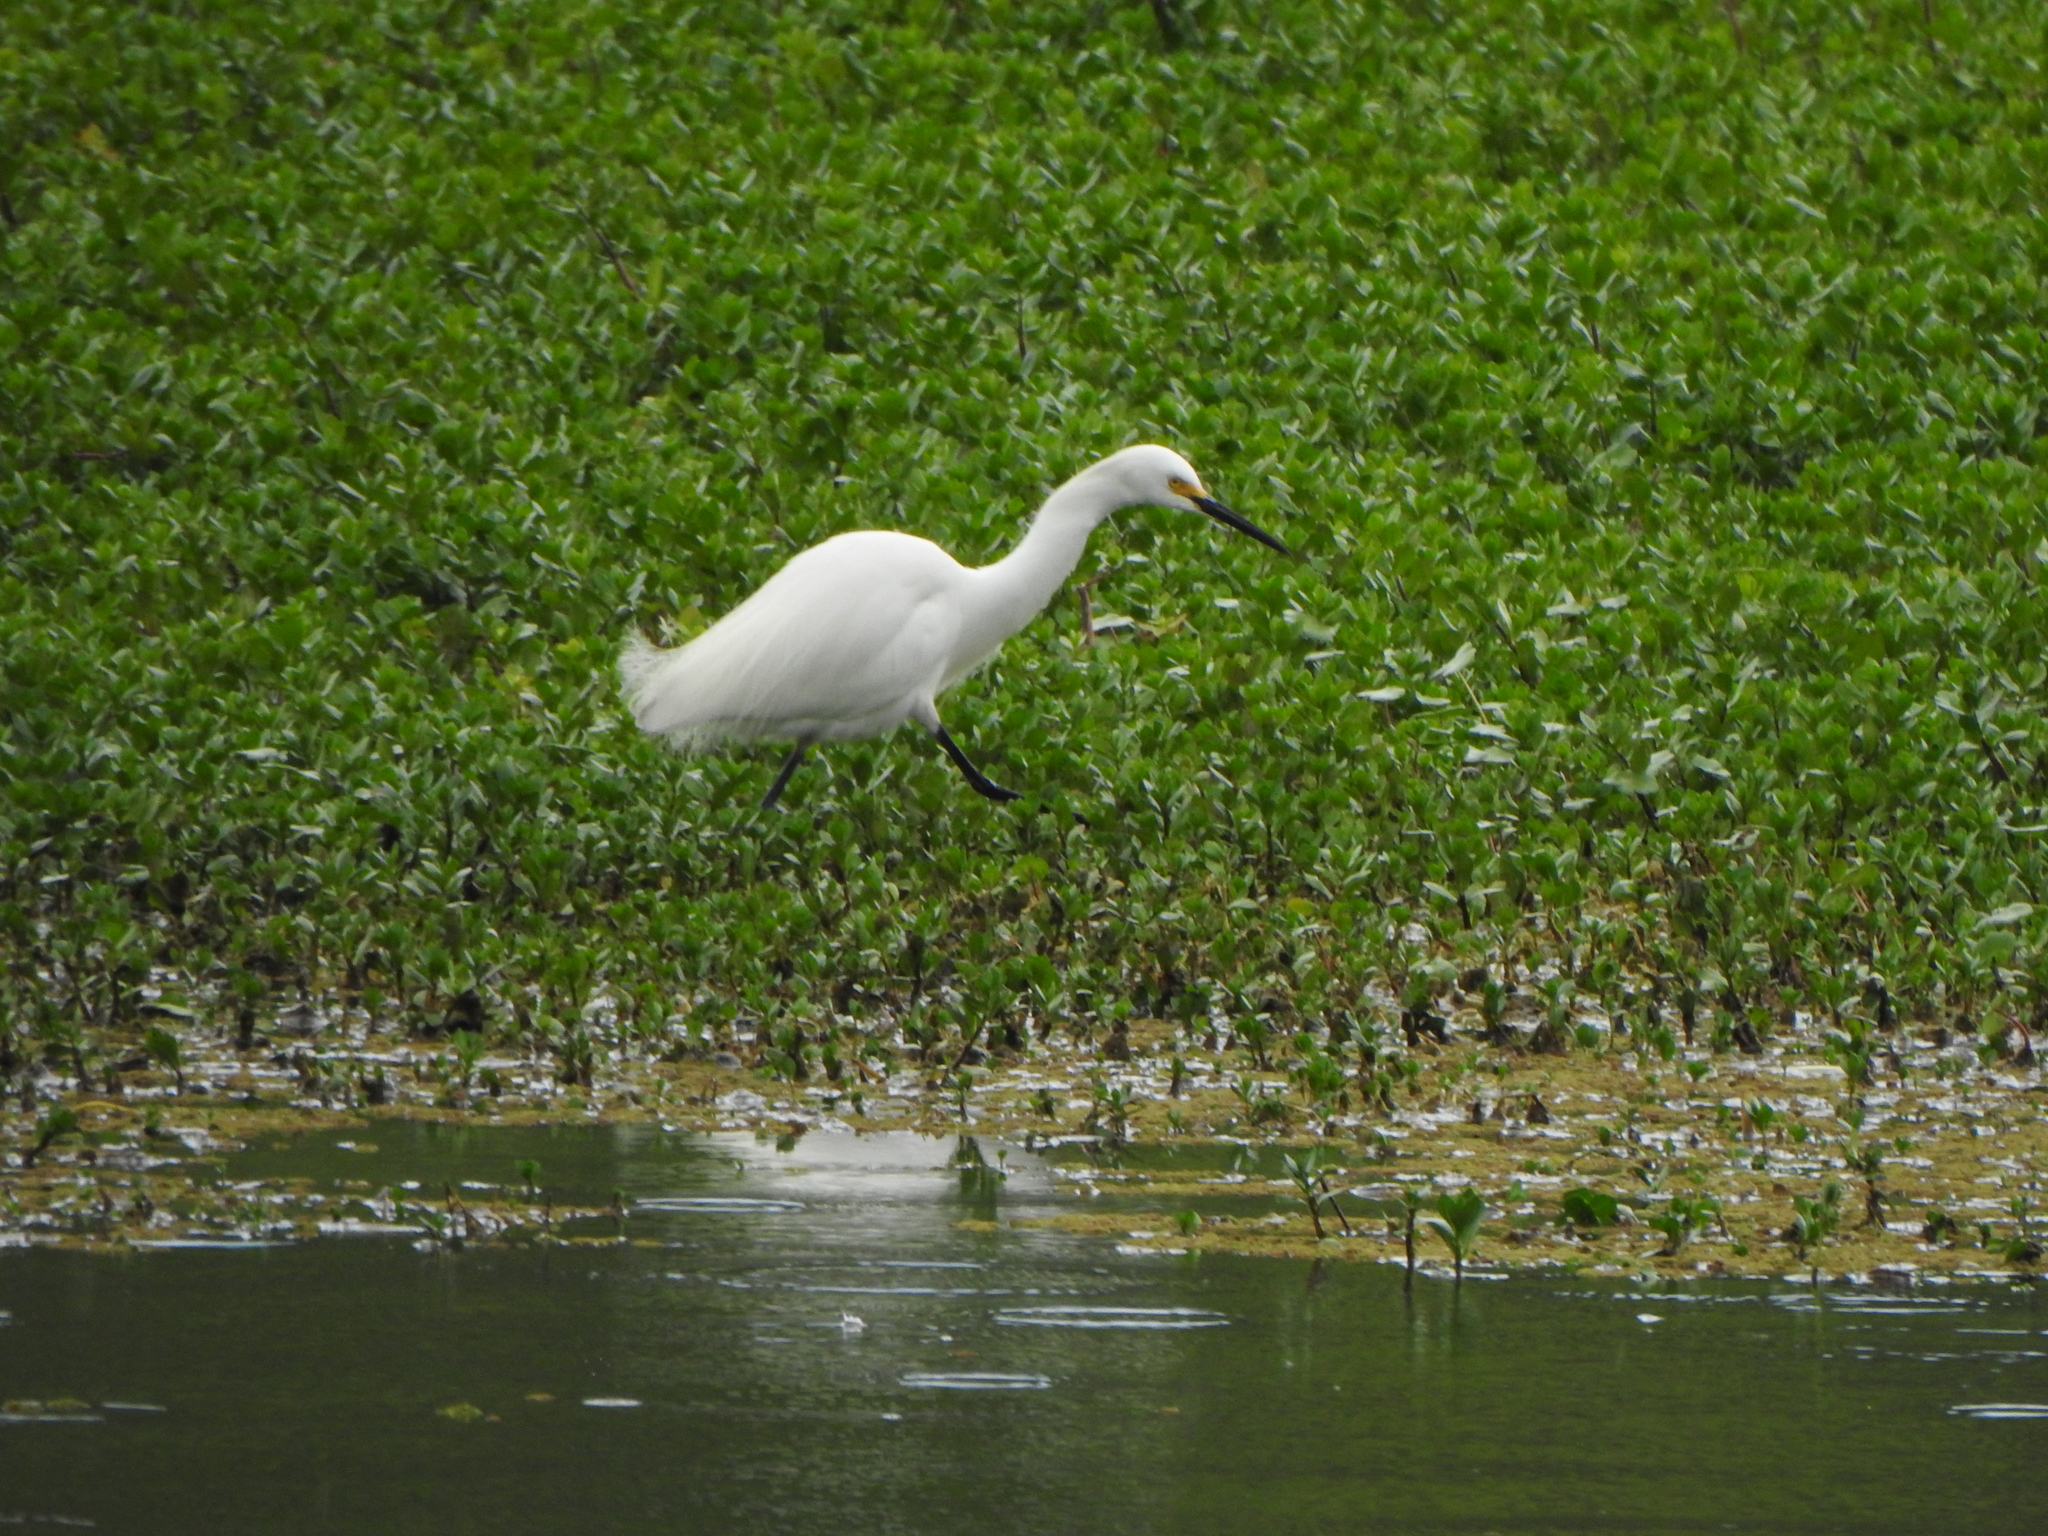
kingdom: Animalia
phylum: Chordata
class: Aves
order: Pelecaniformes
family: Ardeidae
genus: Egretta
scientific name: Egretta thula
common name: Snowy egret
